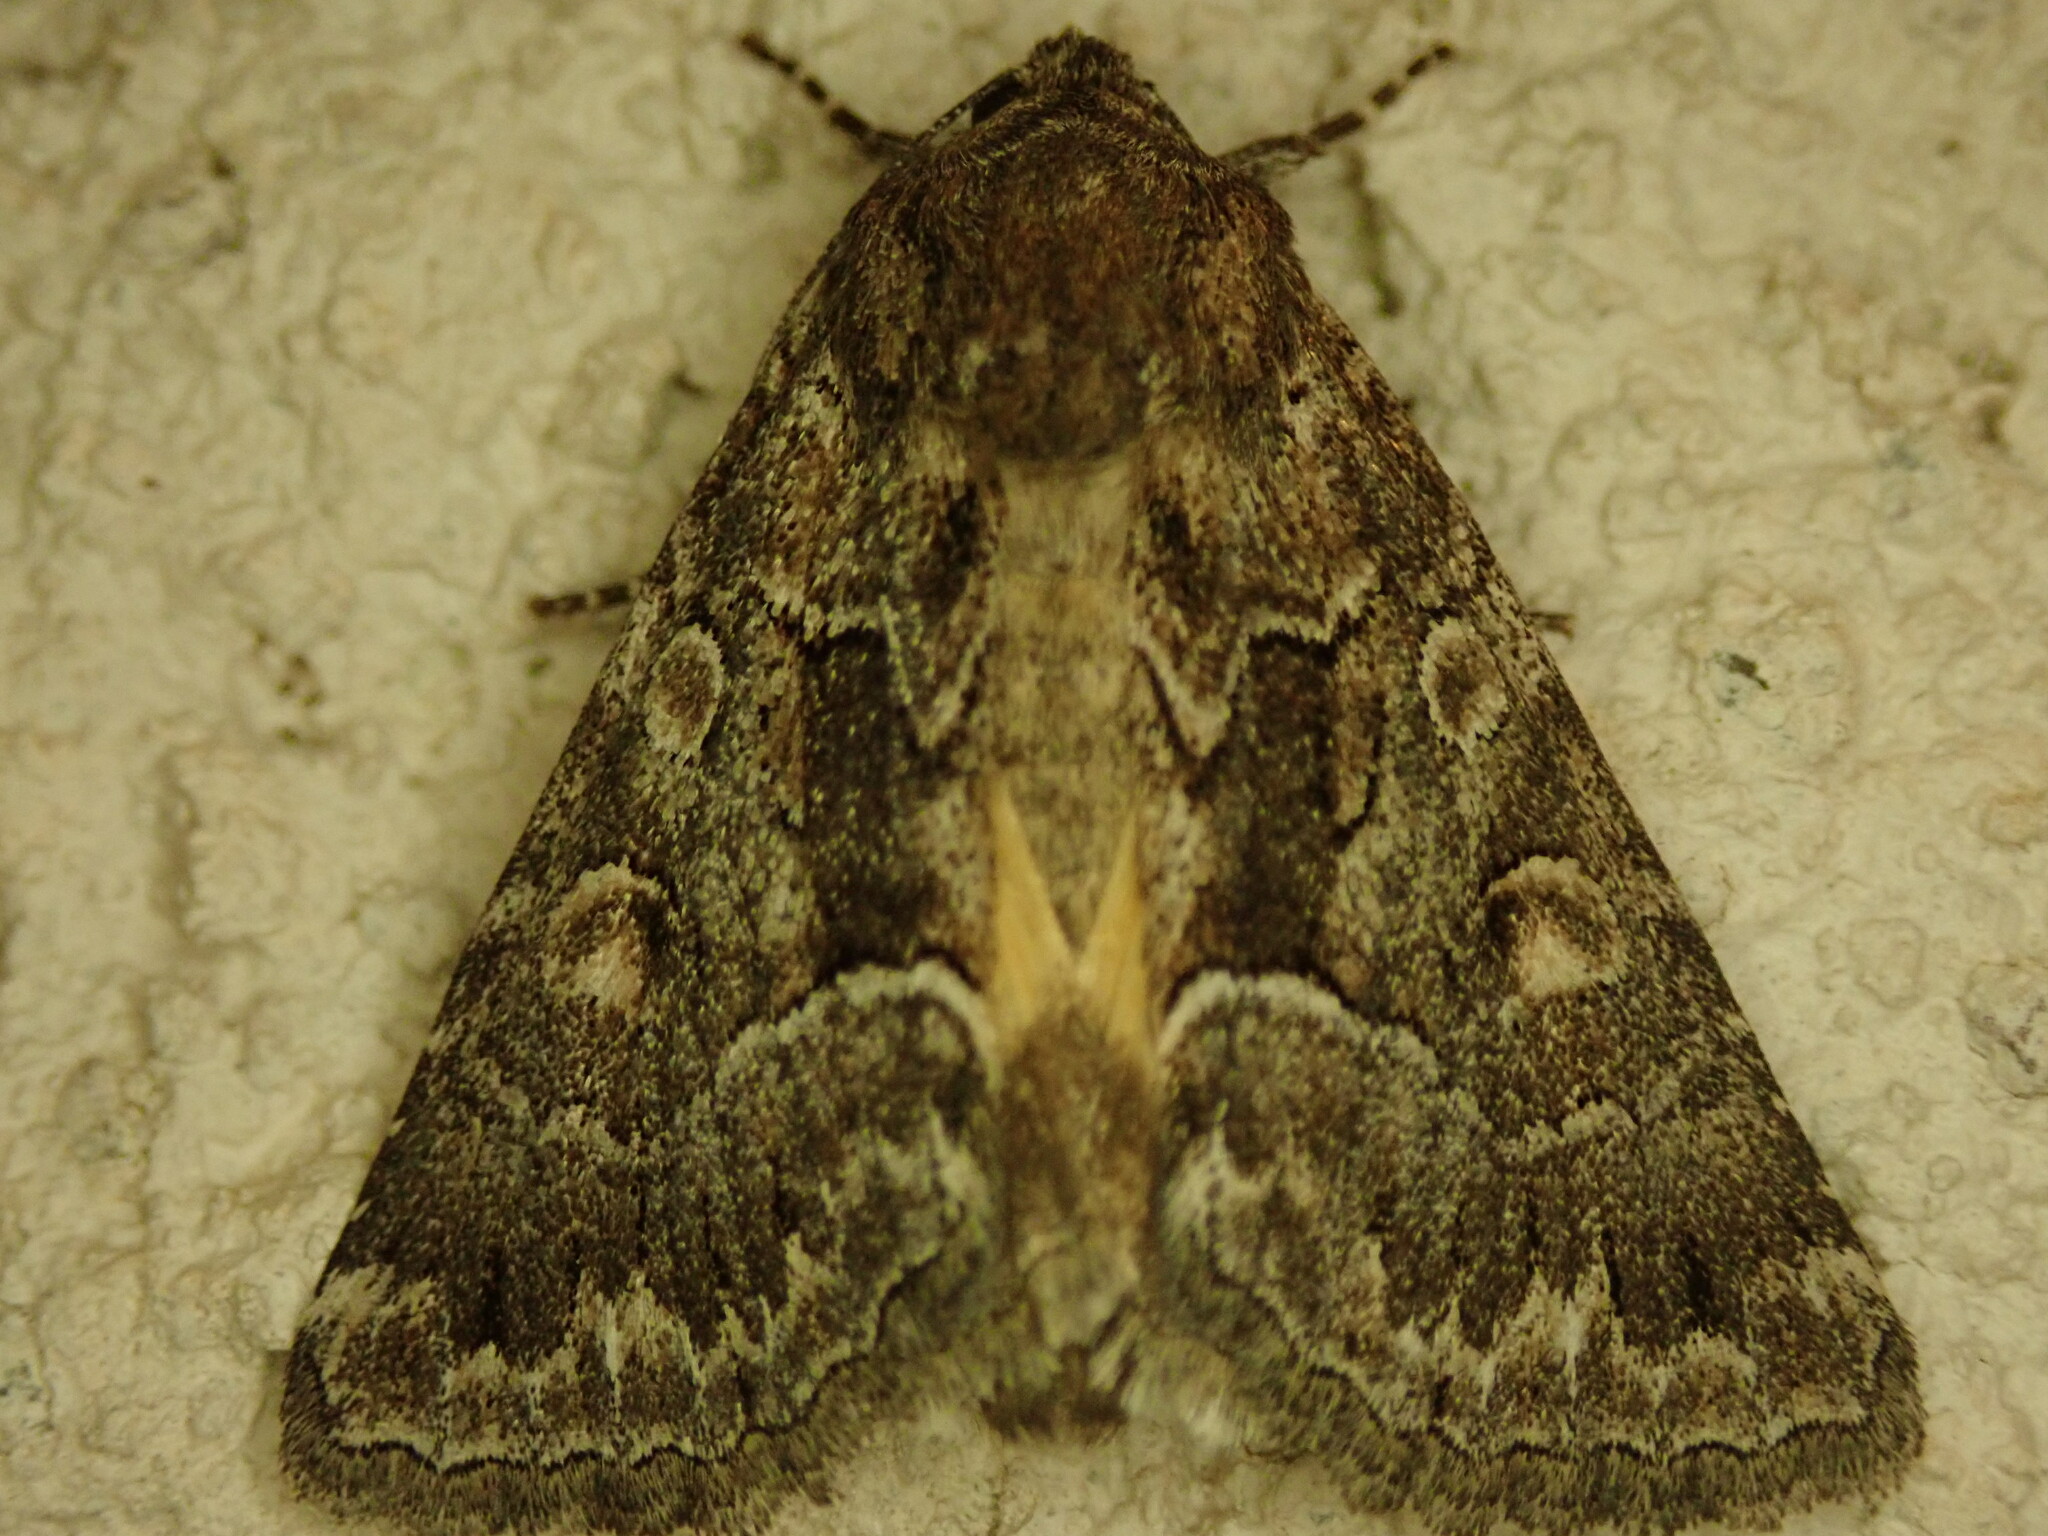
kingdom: Animalia
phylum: Arthropoda
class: Insecta
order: Lepidoptera
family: Noctuidae
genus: Thalpophila
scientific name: Thalpophila matura
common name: Straw underwing
